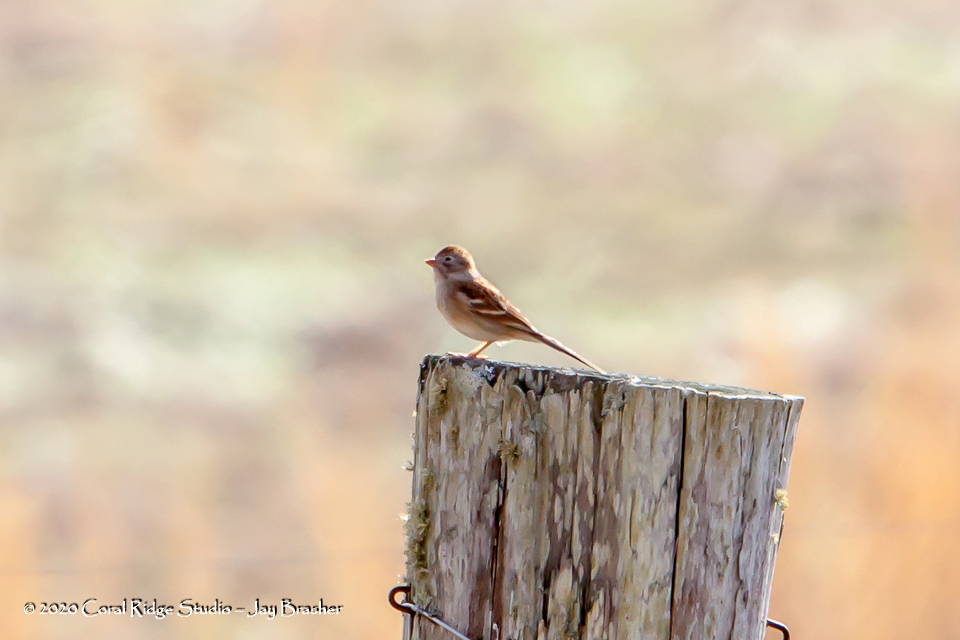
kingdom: Animalia
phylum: Chordata
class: Aves
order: Passeriformes
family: Passerellidae
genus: Spizella
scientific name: Spizella pusilla
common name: Field sparrow
